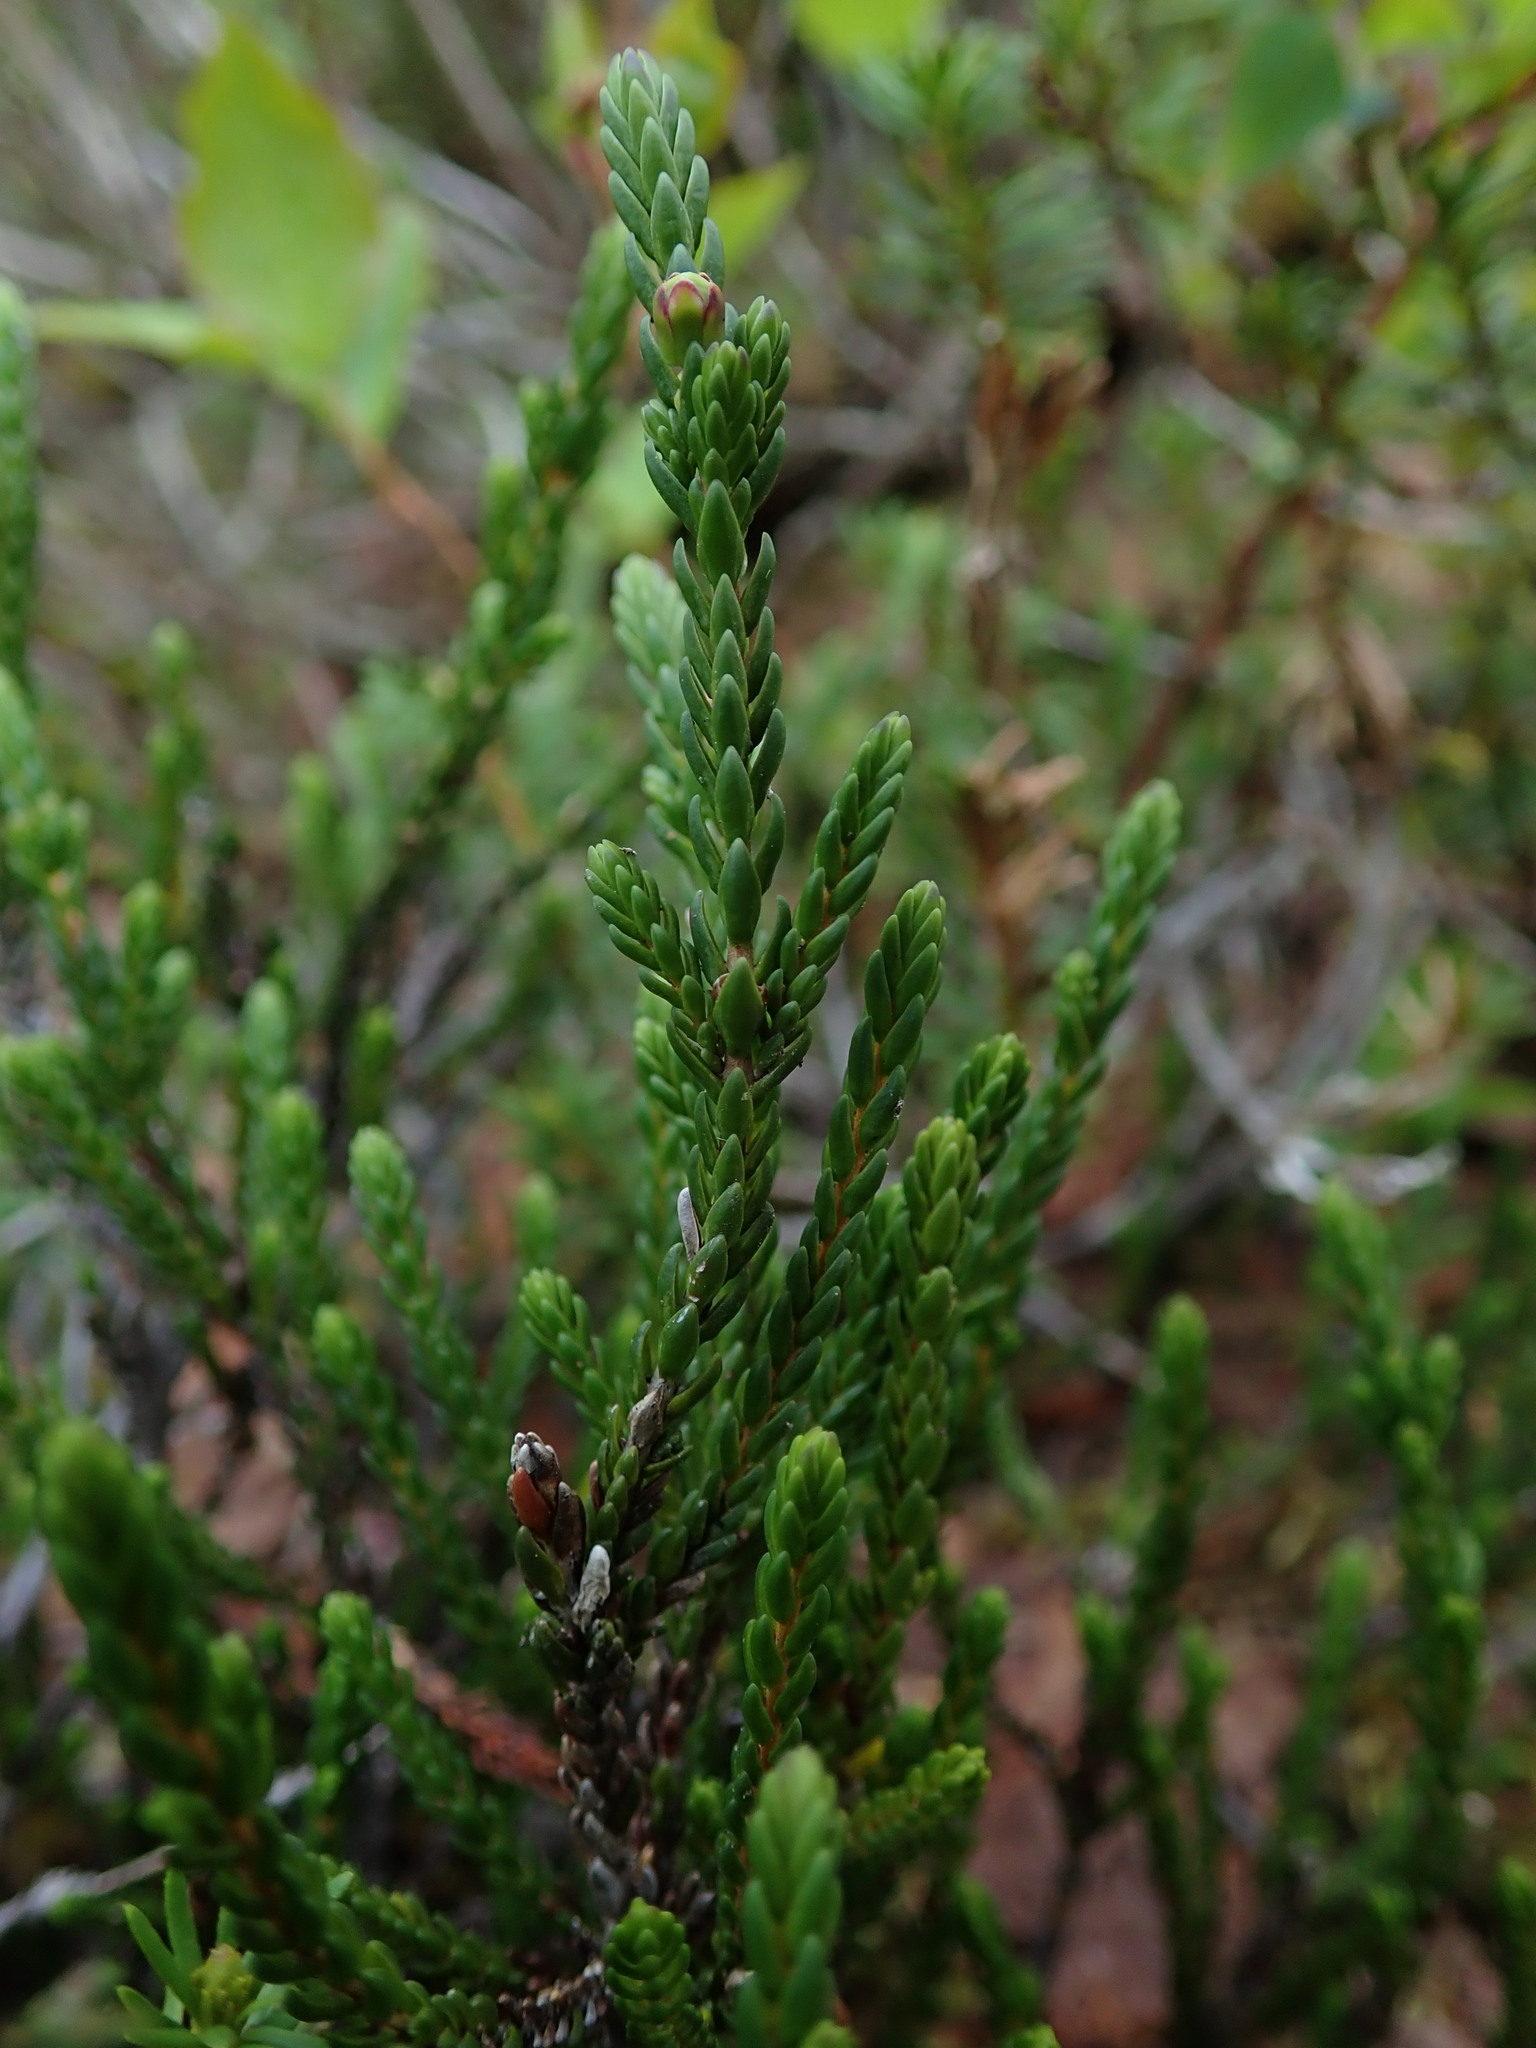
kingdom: Plantae
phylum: Tracheophyta
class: Magnoliopsida
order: Ericales
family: Ericaceae
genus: Cassiope
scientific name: Cassiope mertensiana
